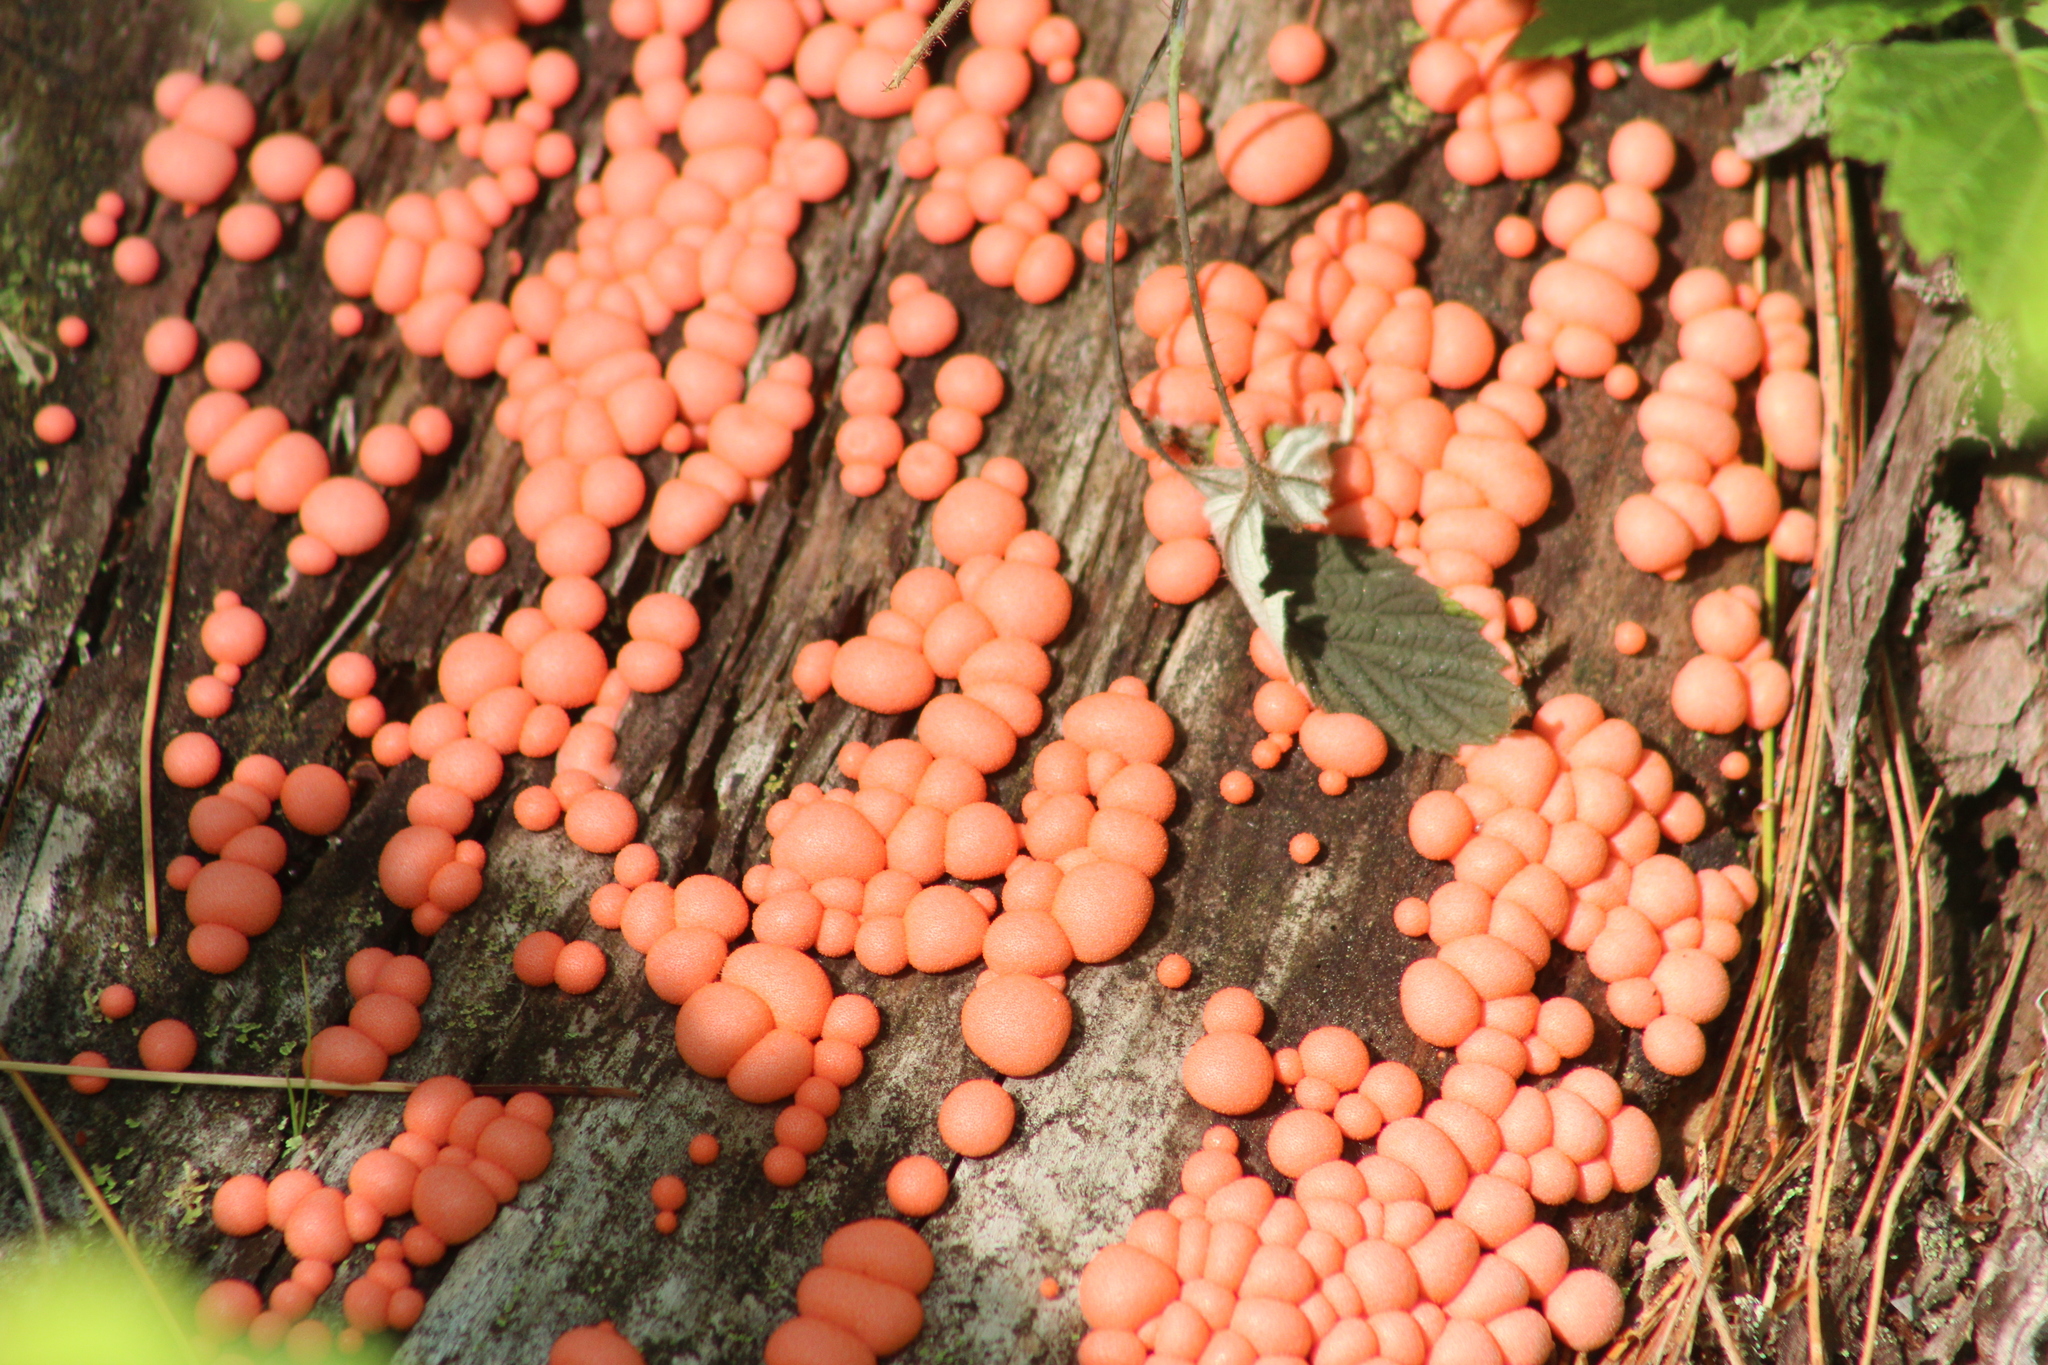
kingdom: Protozoa
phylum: Mycetozoa
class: Myxomycetes
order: Cribrariales
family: Tubiferaceae
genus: Lycogala
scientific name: Lycogala epidendrum
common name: Wolf's milk
